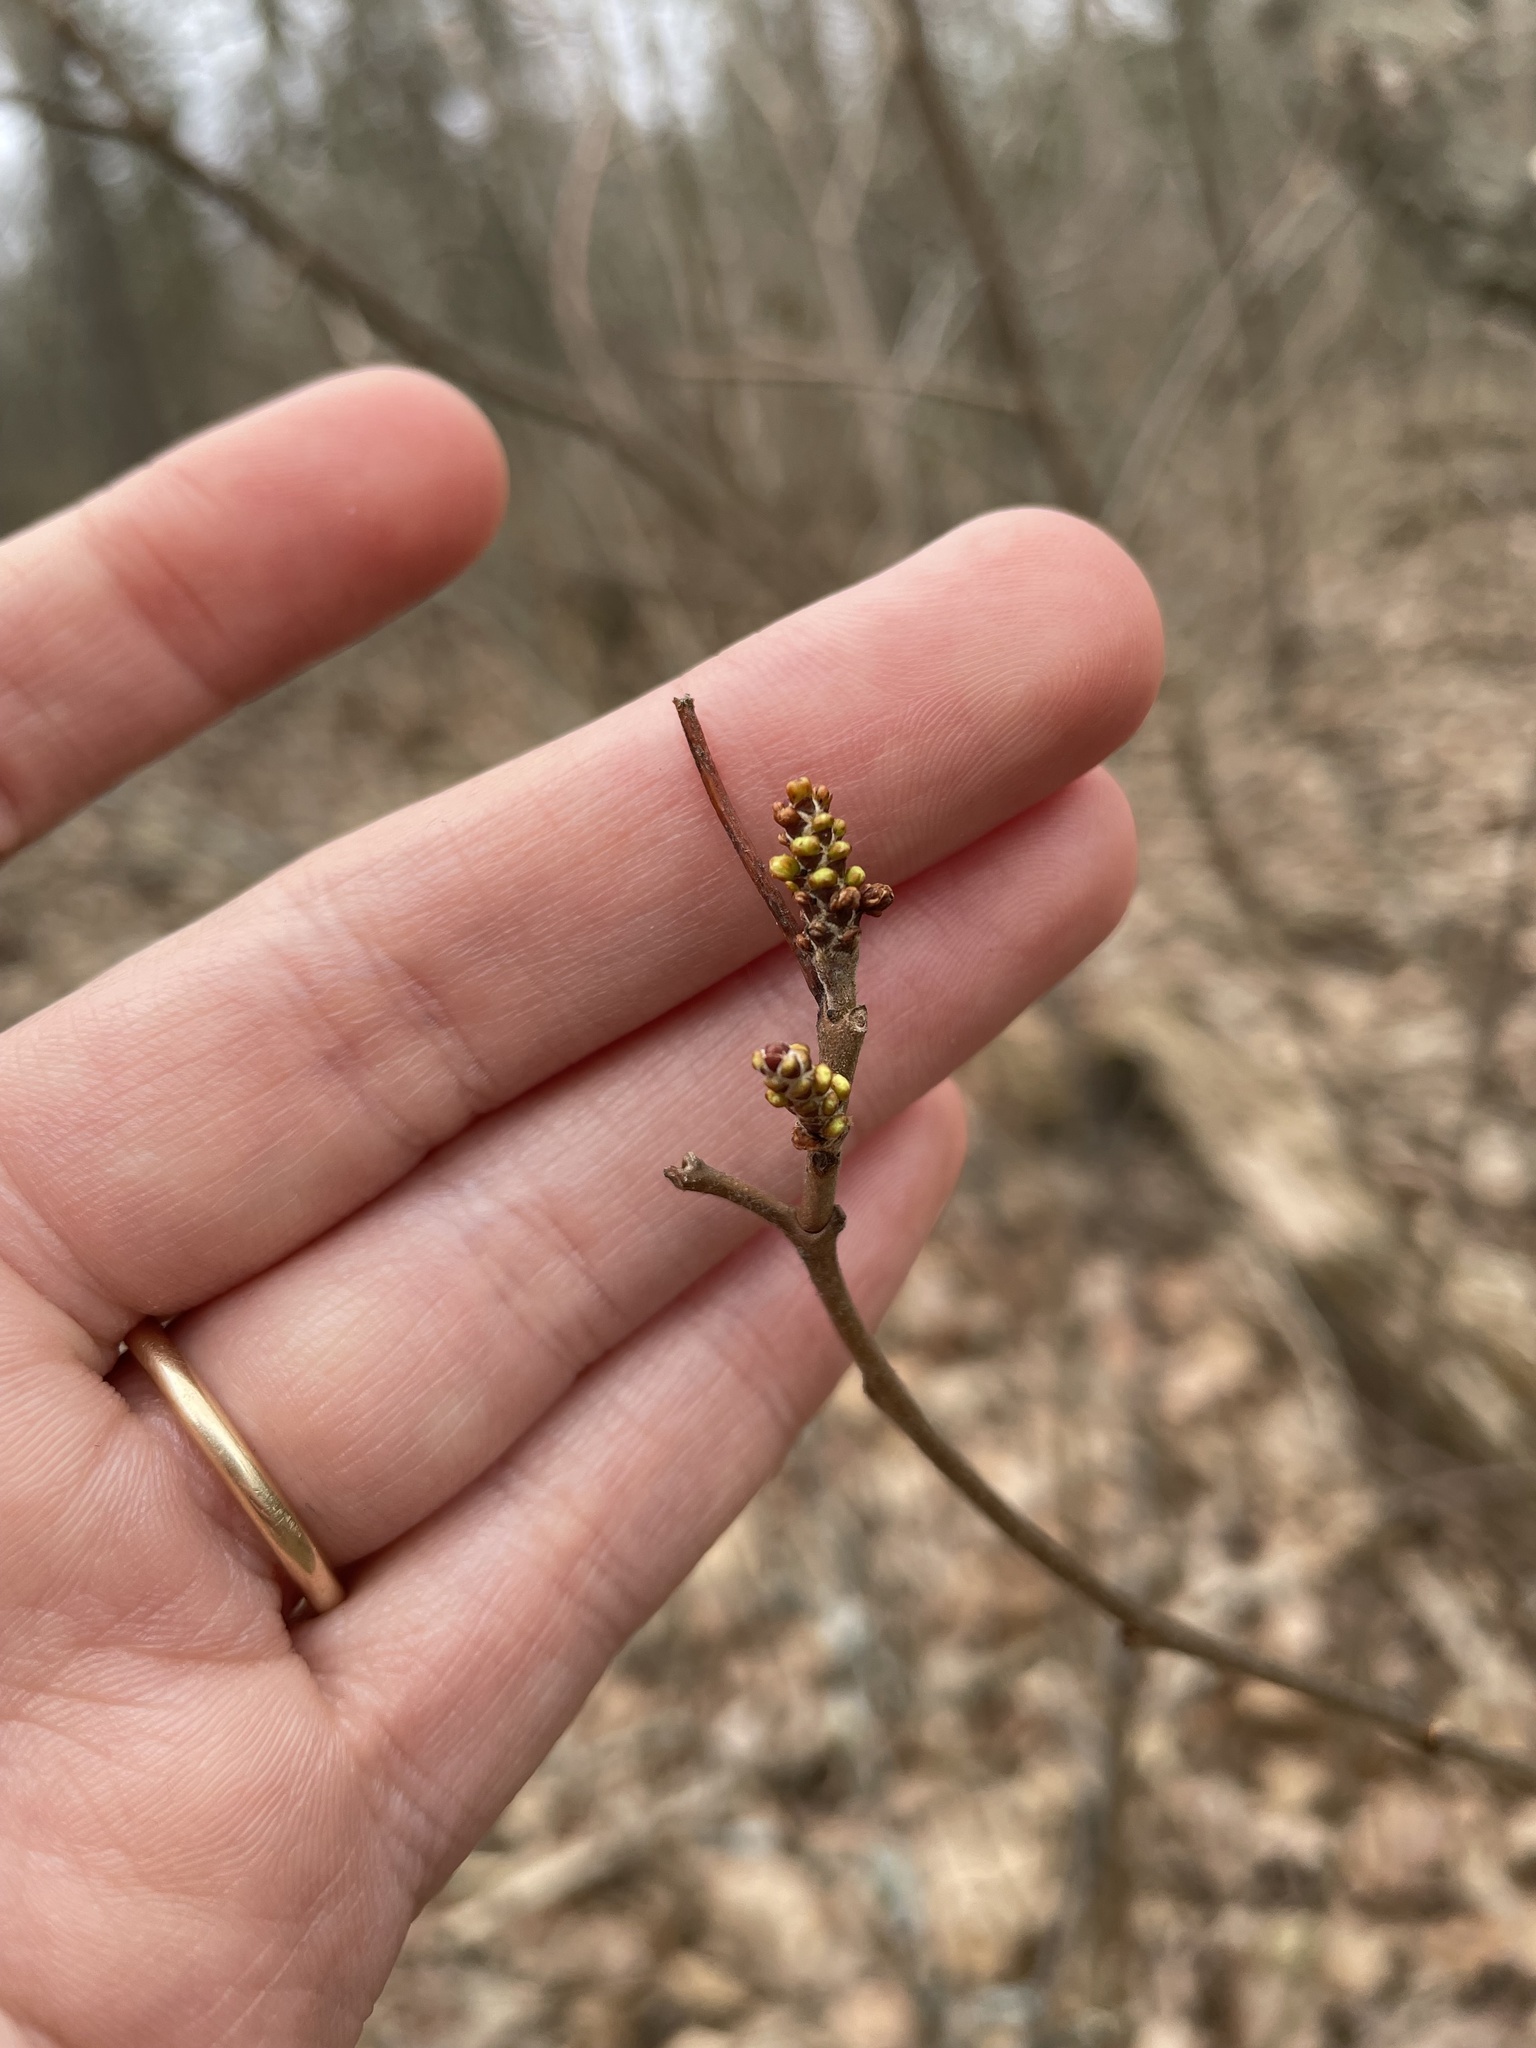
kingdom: Plantae
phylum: Tracheophyta
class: Magnoliopsida
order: Sapindales
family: Anacardiaceae
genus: Rhus
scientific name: Rhus aromatica
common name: Aromatic sumac
